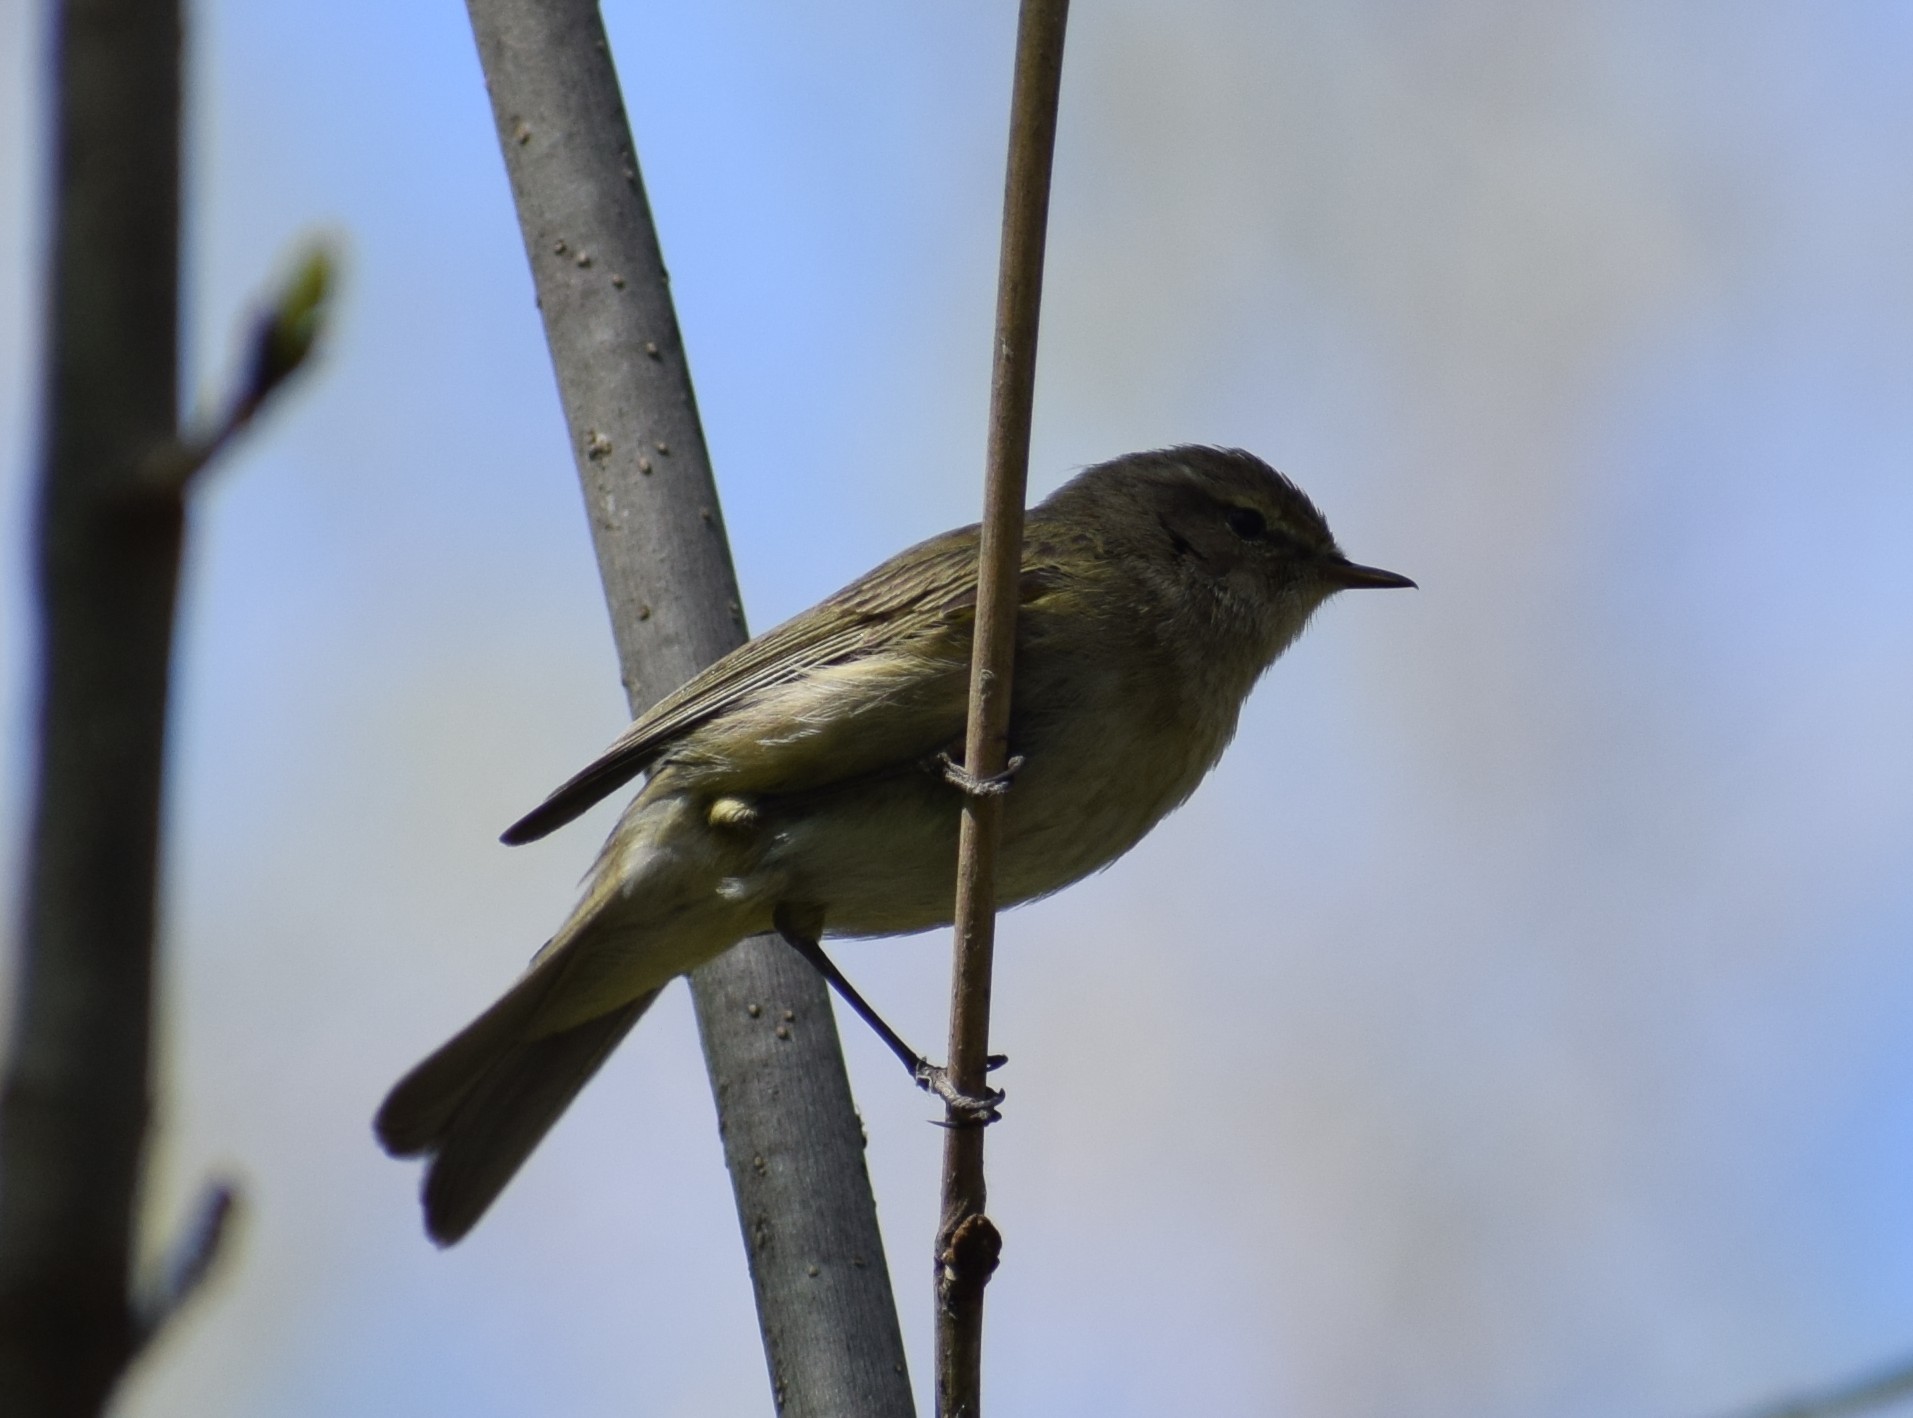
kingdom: Animalia
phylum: Chordata
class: Aves
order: Passeriformes
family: Phylloscopidae
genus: Phylloscopus
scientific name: Phylloscopus collybita
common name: Common chiffchaff
